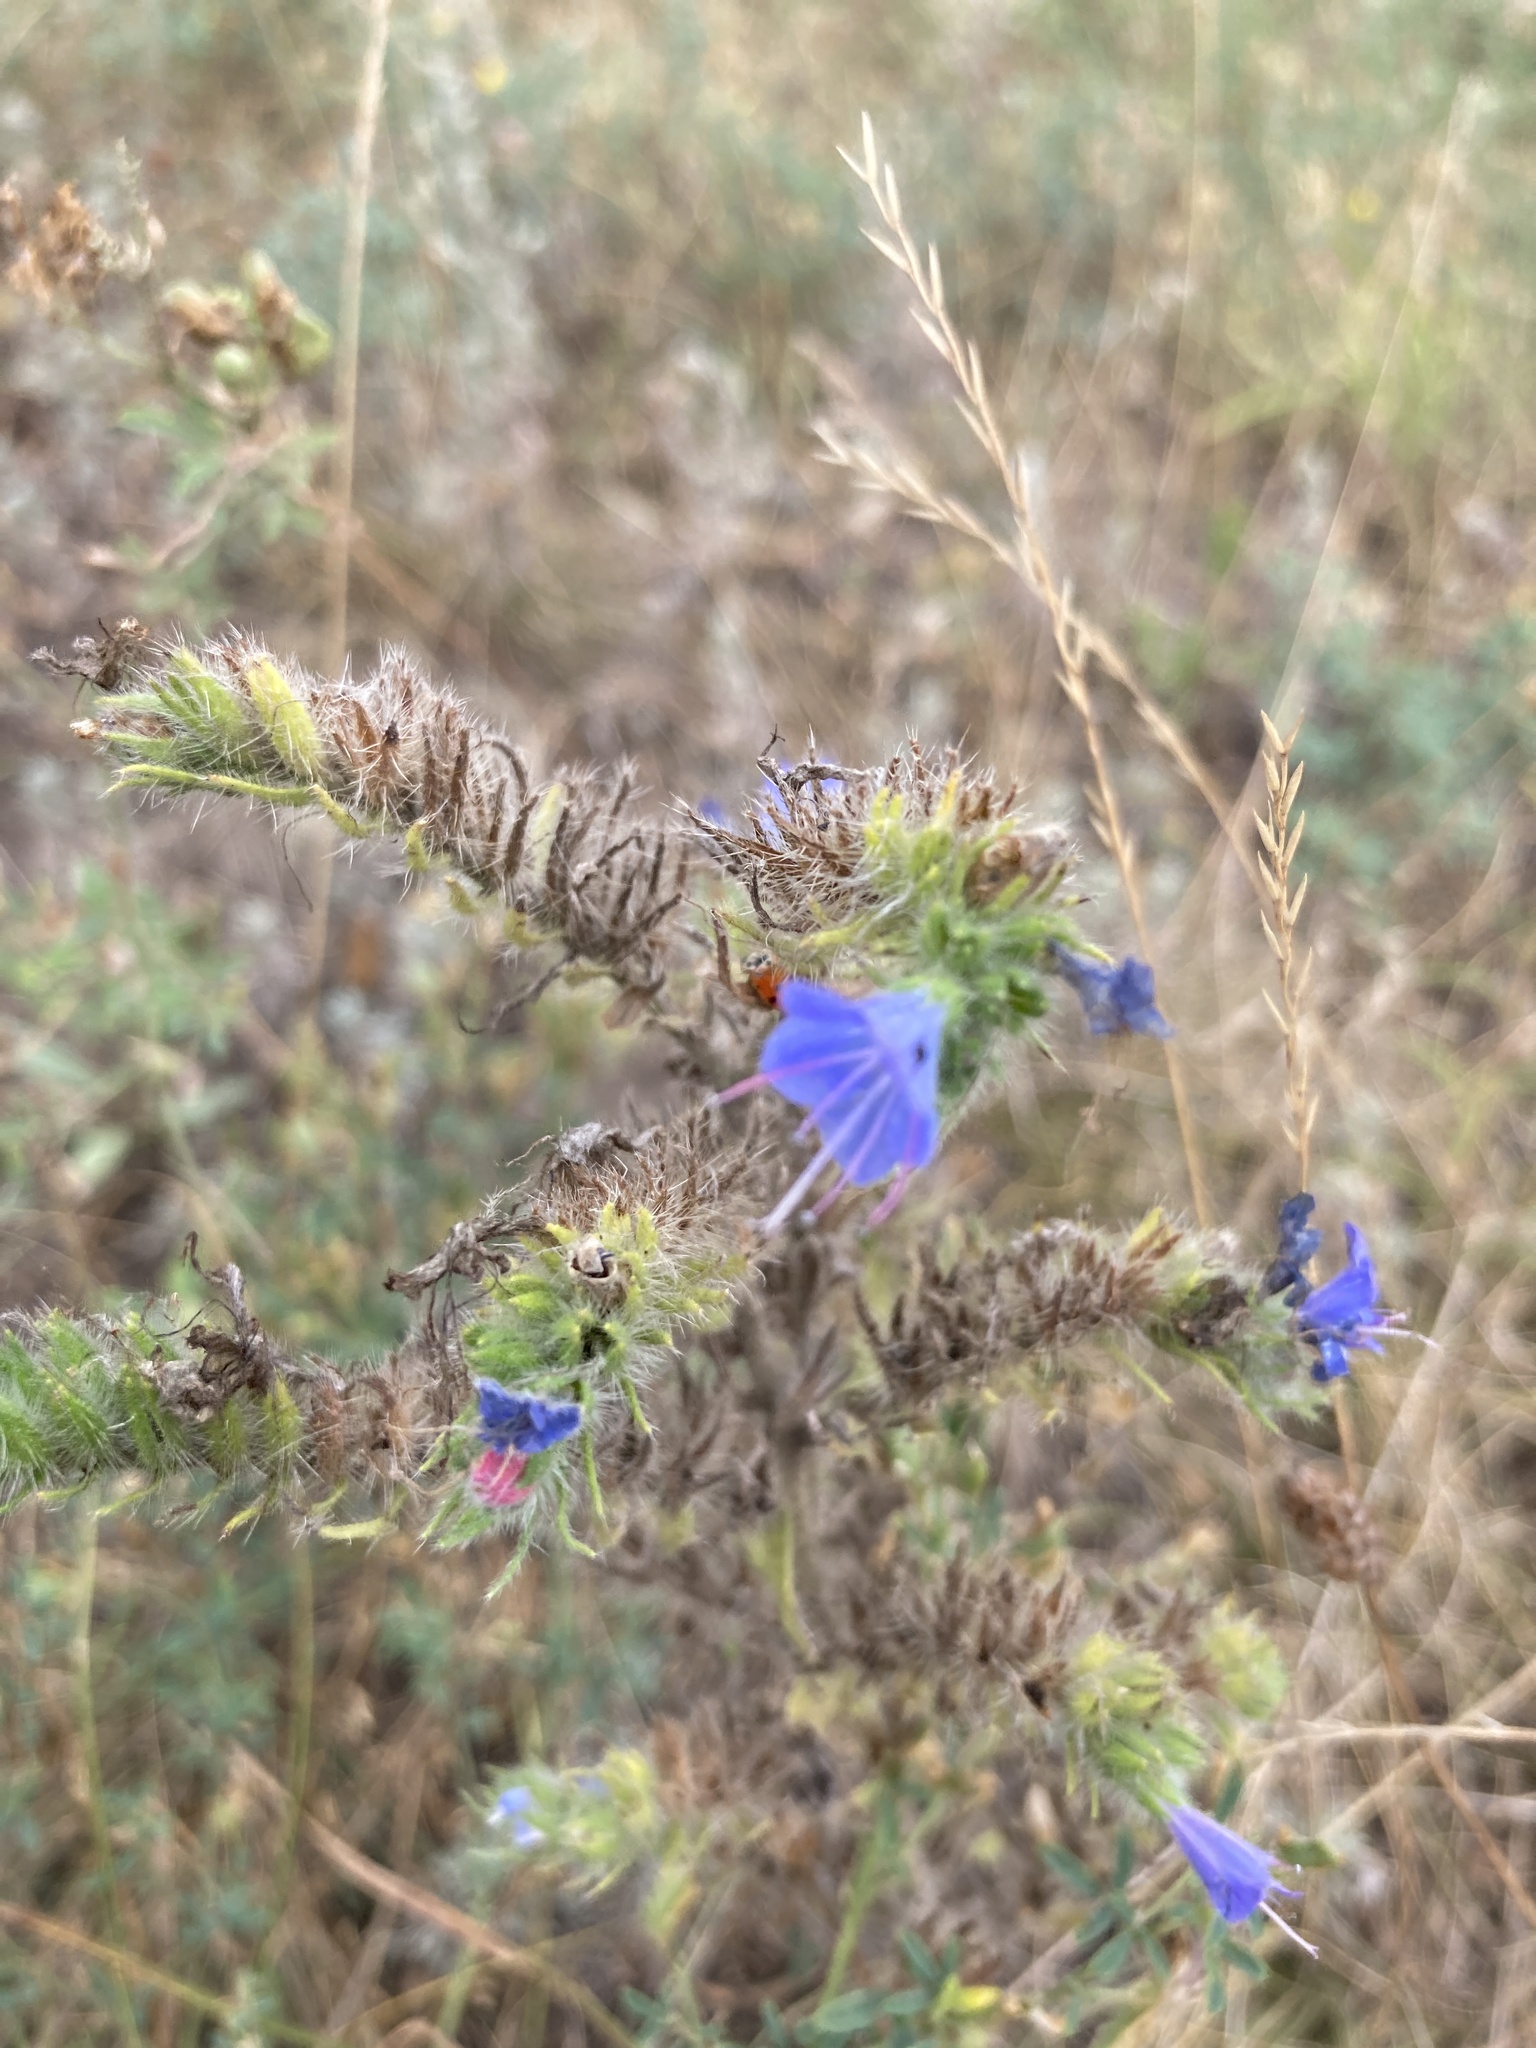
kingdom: Plantae
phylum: Tracheophyta
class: Magnoliopsida
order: Boraginales
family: Boraginaceae
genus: Echium
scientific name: Echium vulgare
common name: Common viper's bugloss
